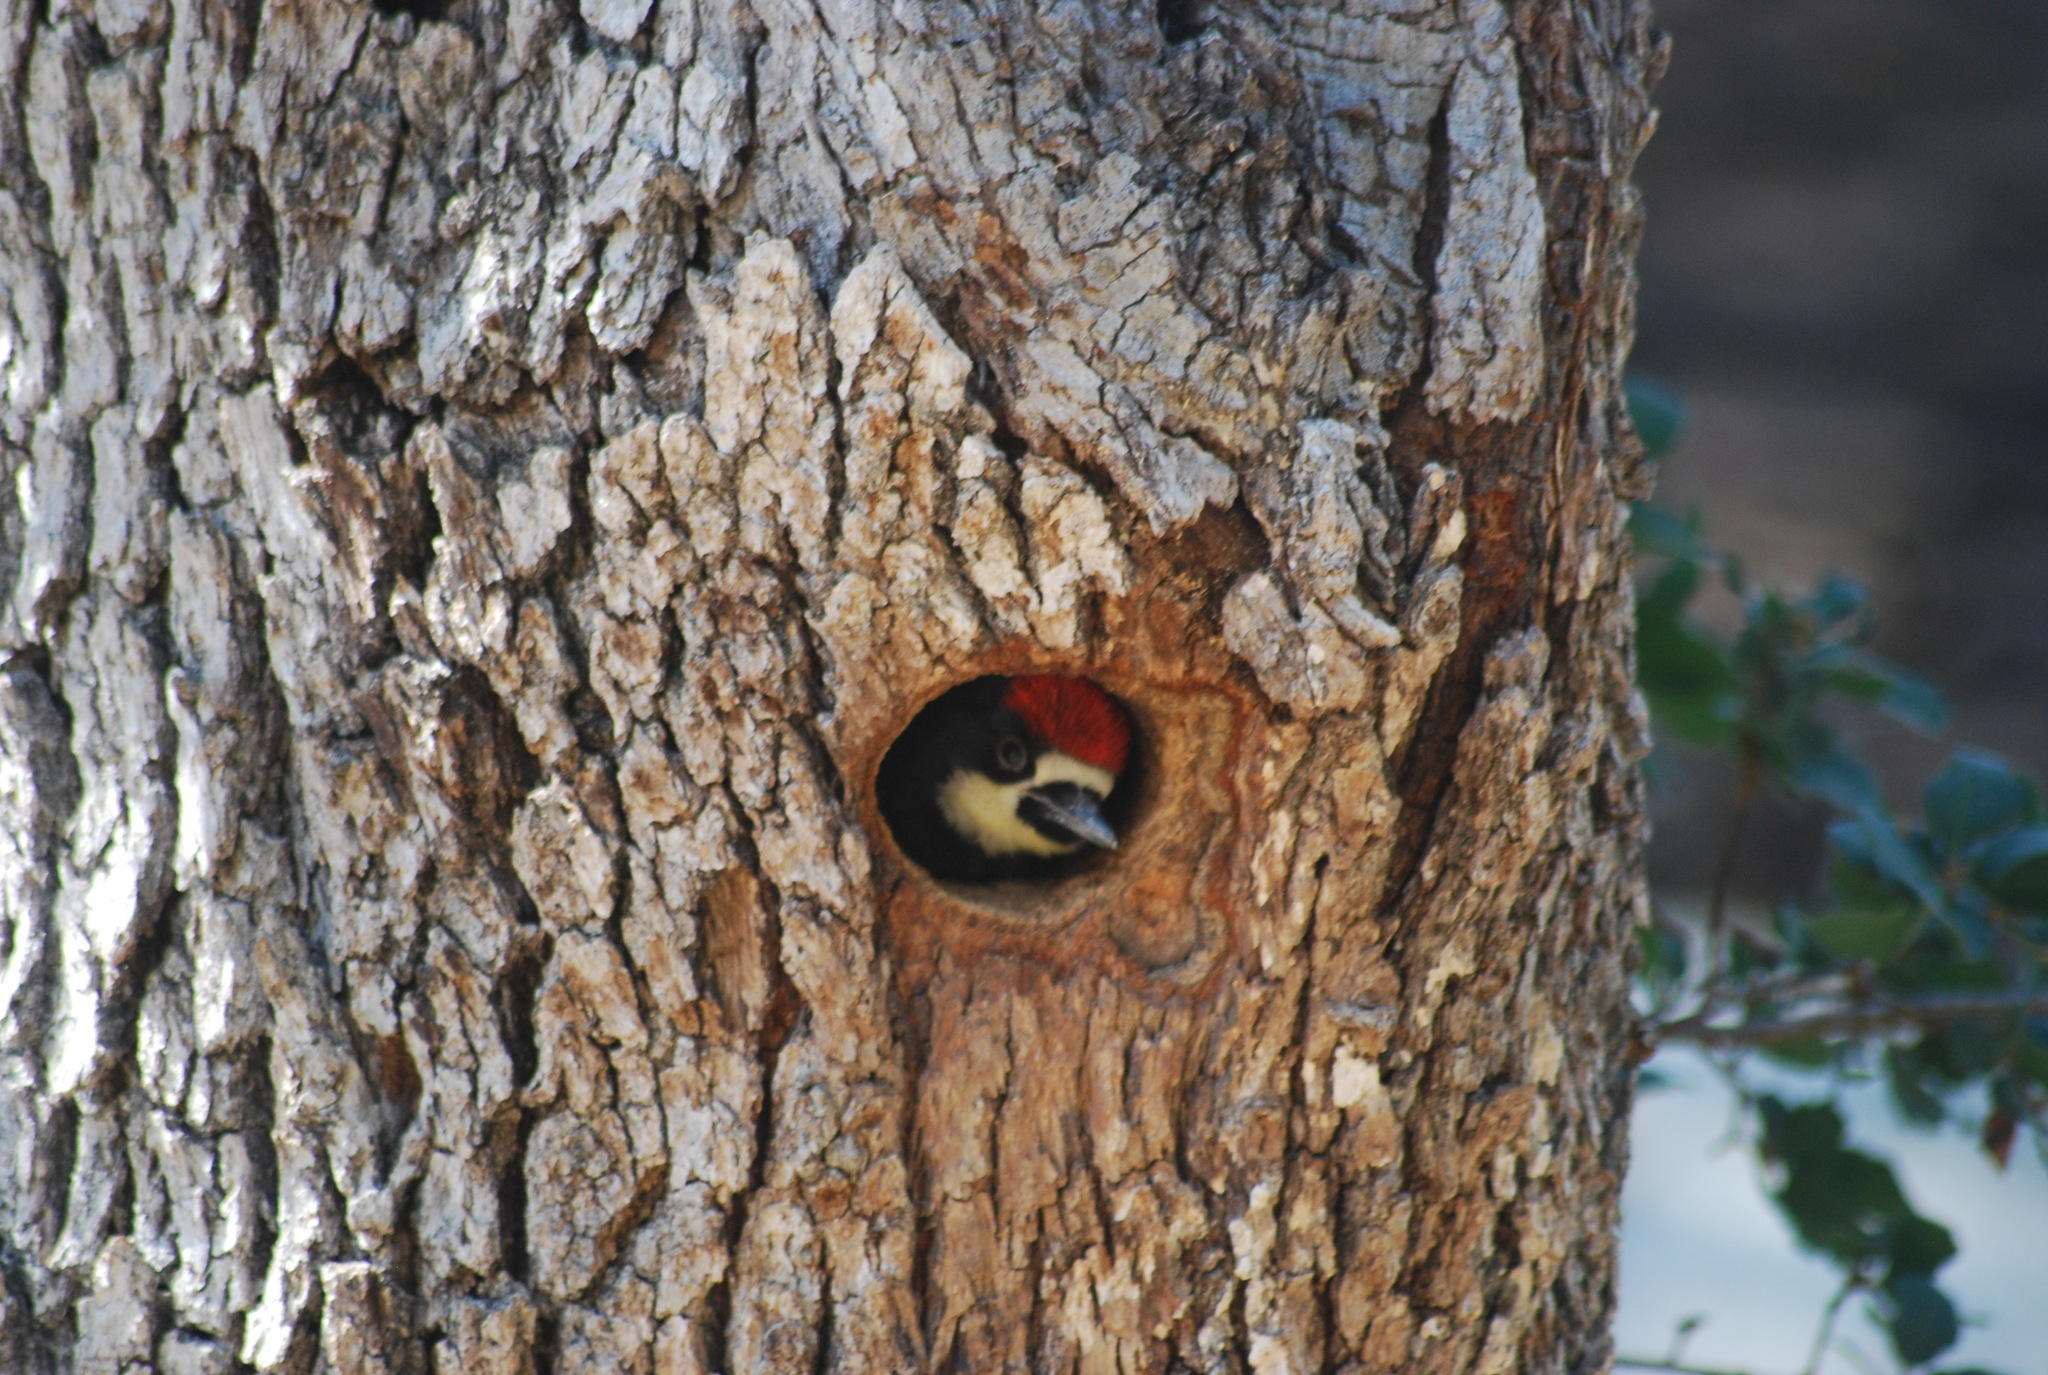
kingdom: Animalia
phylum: Chordata
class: Aves
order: Piciformes
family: Picidae
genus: Melanerpes
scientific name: Melanerpes formicivorus
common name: Acorn woodpecker
